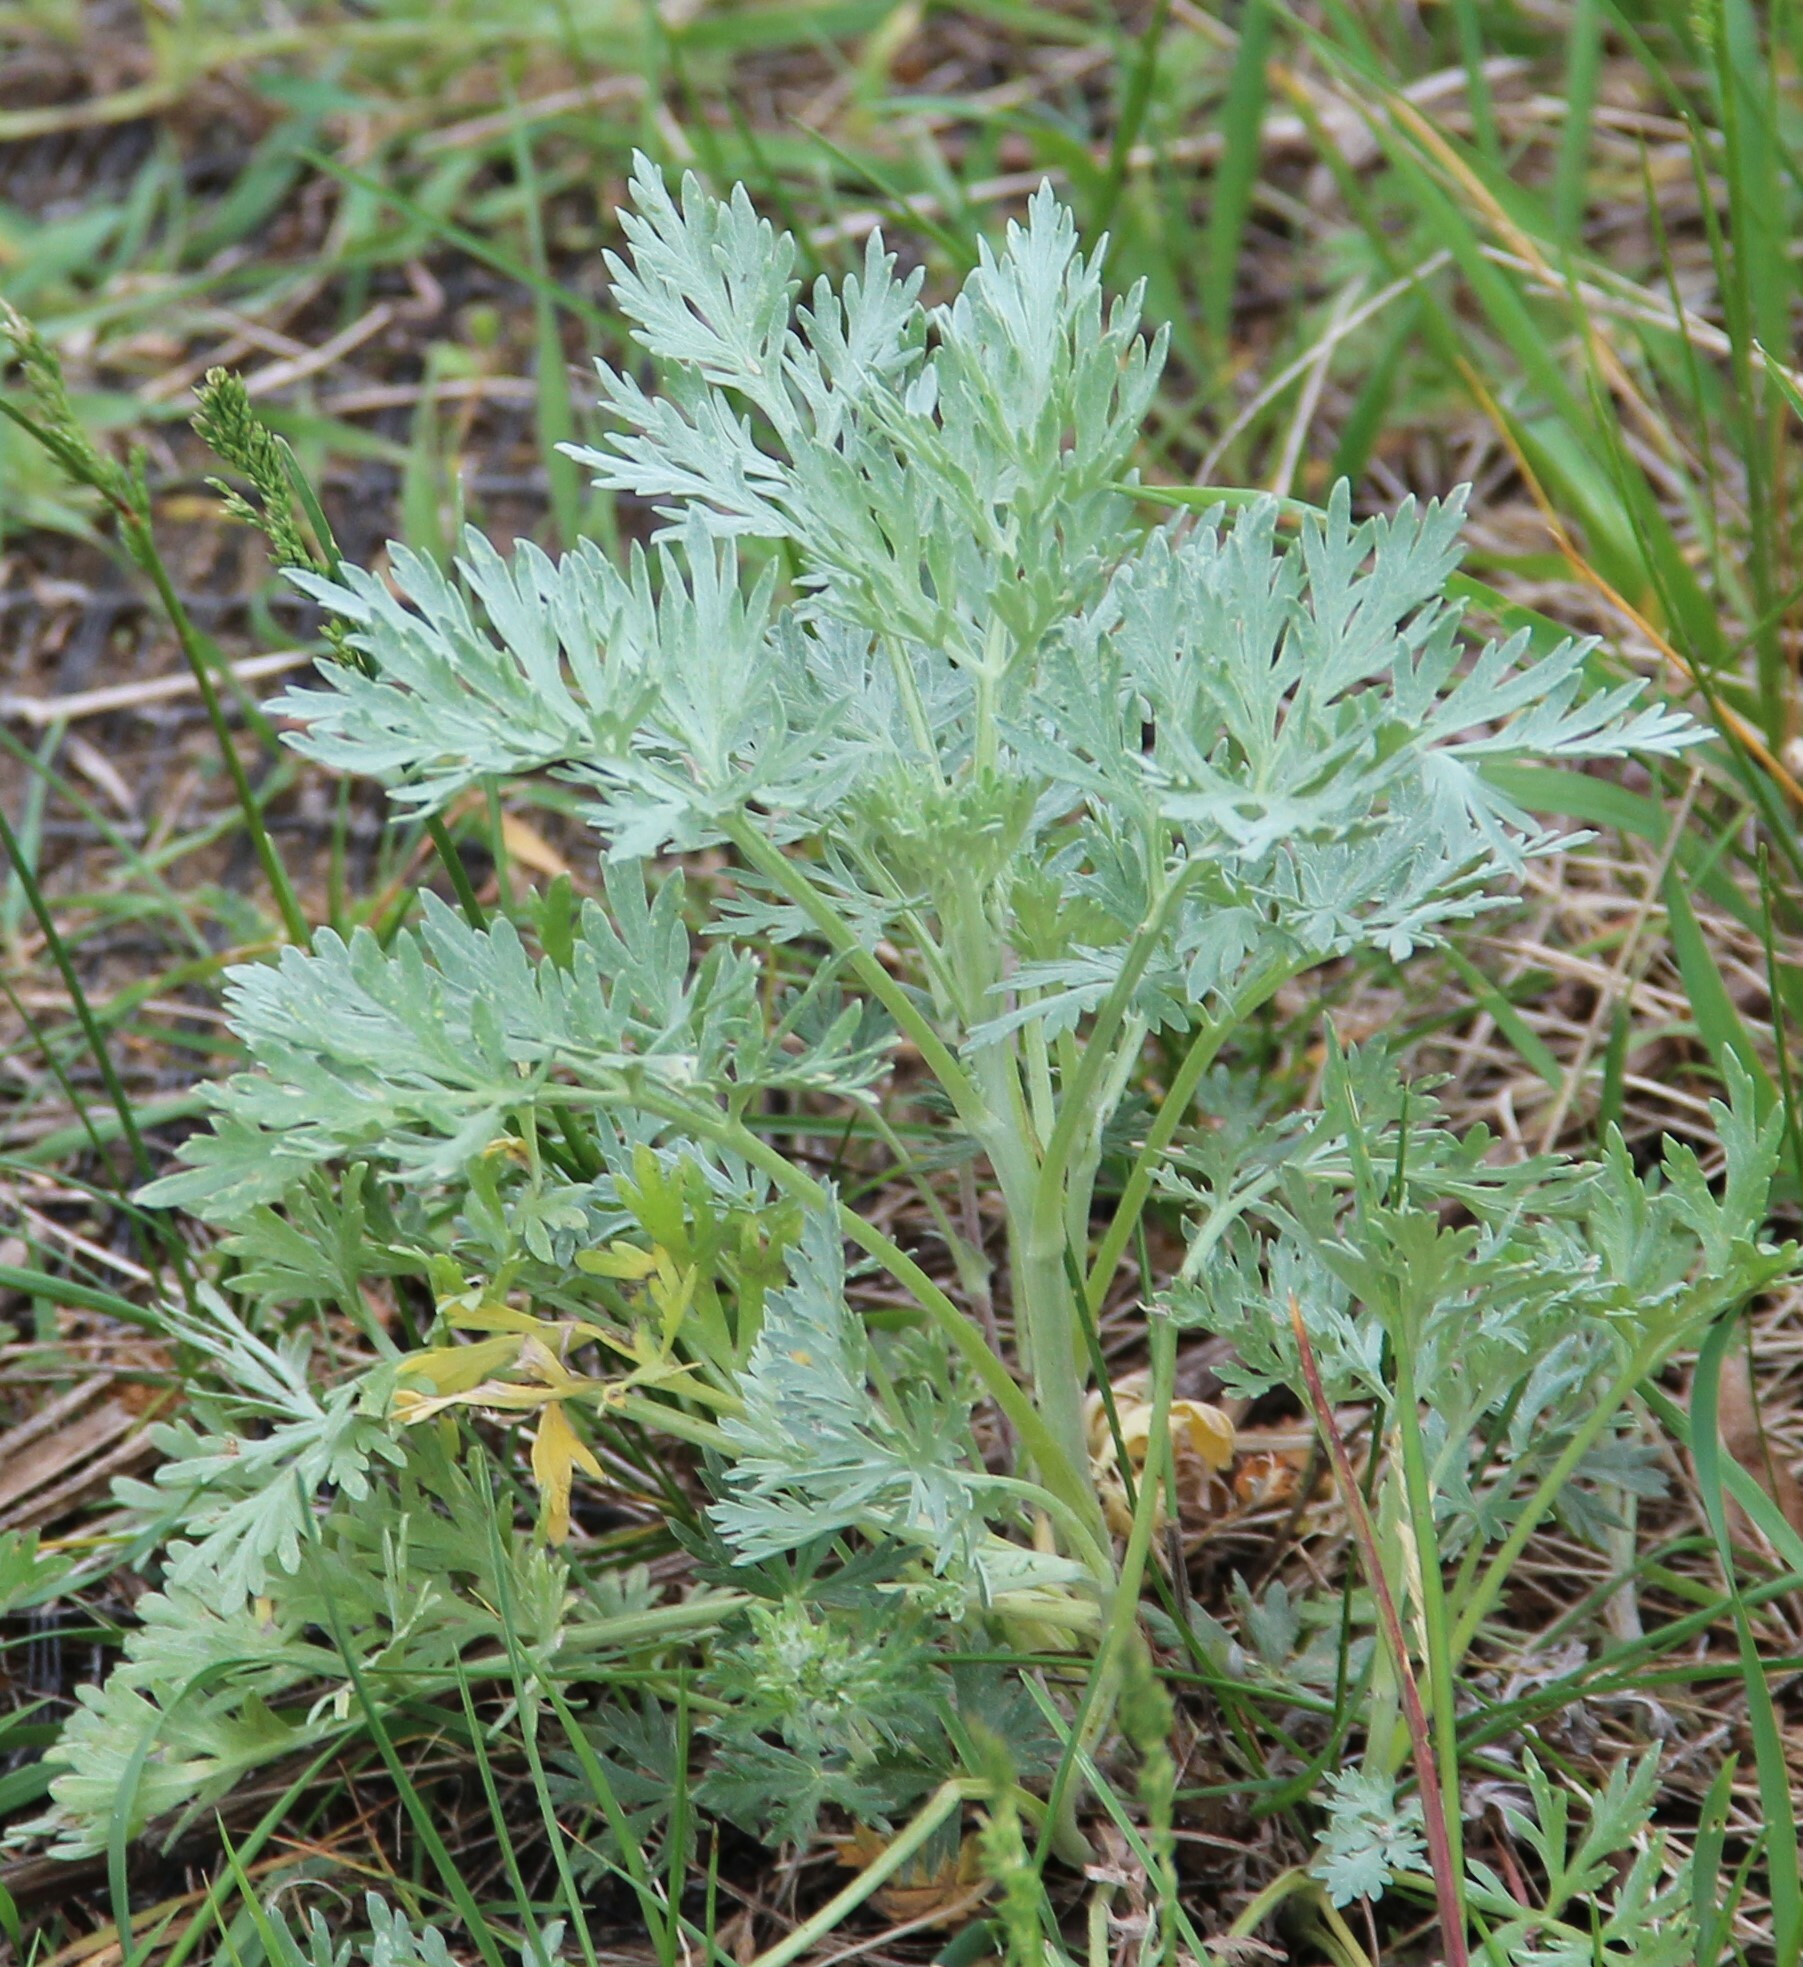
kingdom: Plantae
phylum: Tracheophyta
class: Magnoliopsida
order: Asterales
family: Asteraceae
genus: Artemisia
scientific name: Artemisia absinthium
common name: Wormwood
